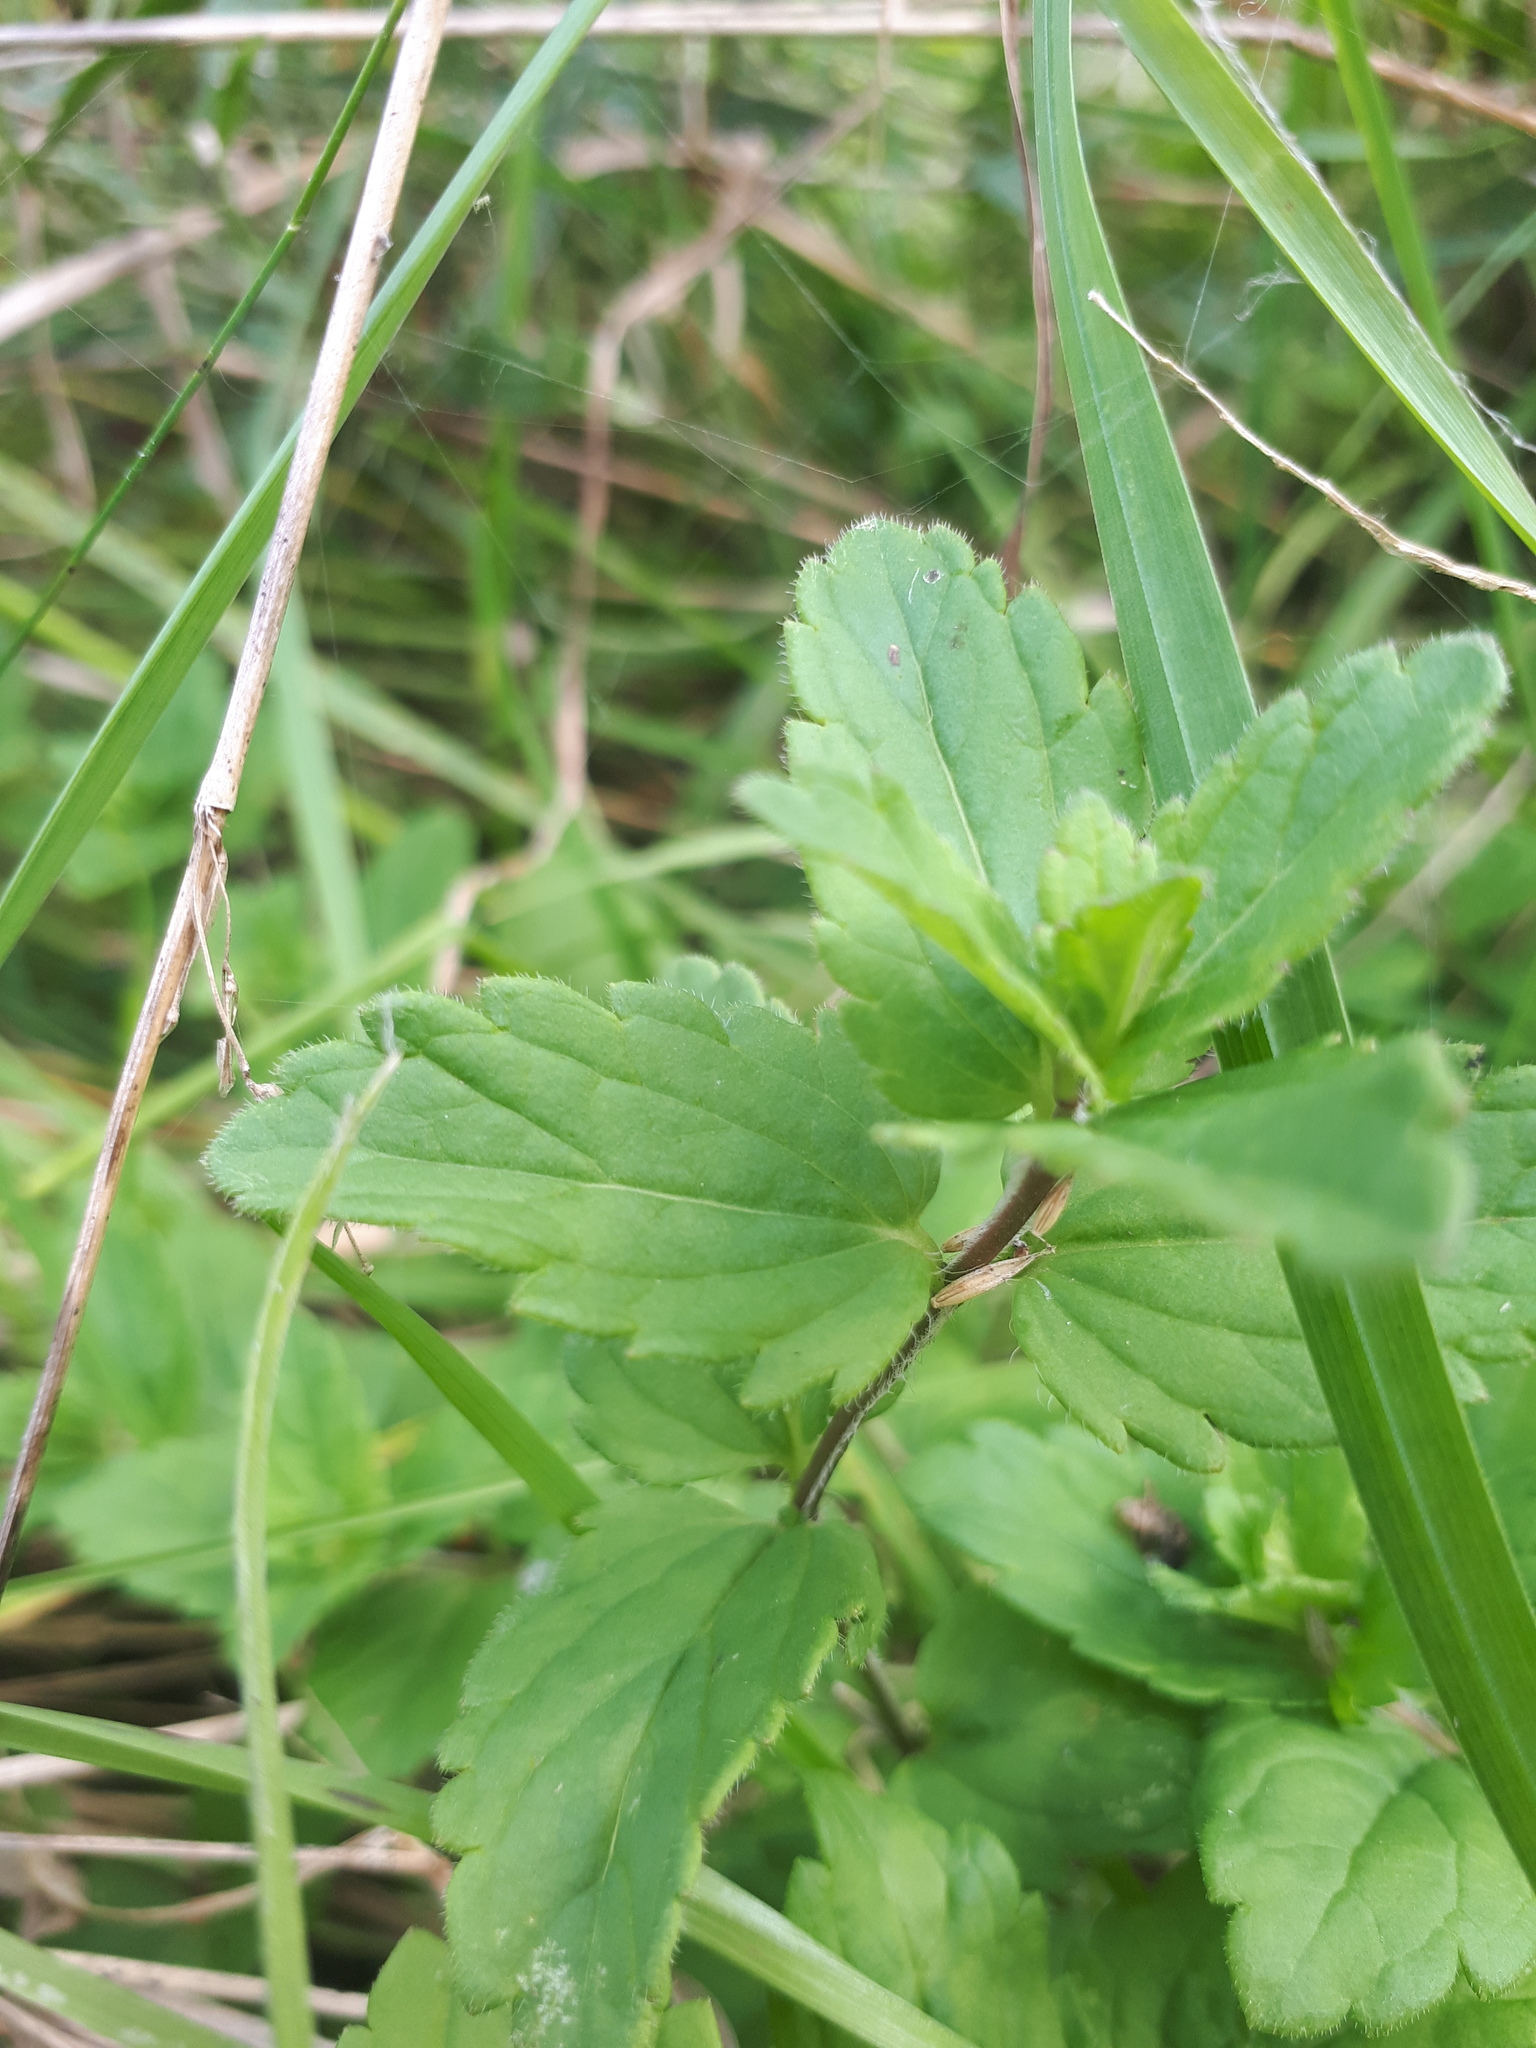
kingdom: Plantae
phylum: Tracheophyta
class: Magnoliopsida
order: Lamiales
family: Plantaginaceae
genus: Veronica
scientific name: Veronica chamaedrys
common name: Germander speedwell
